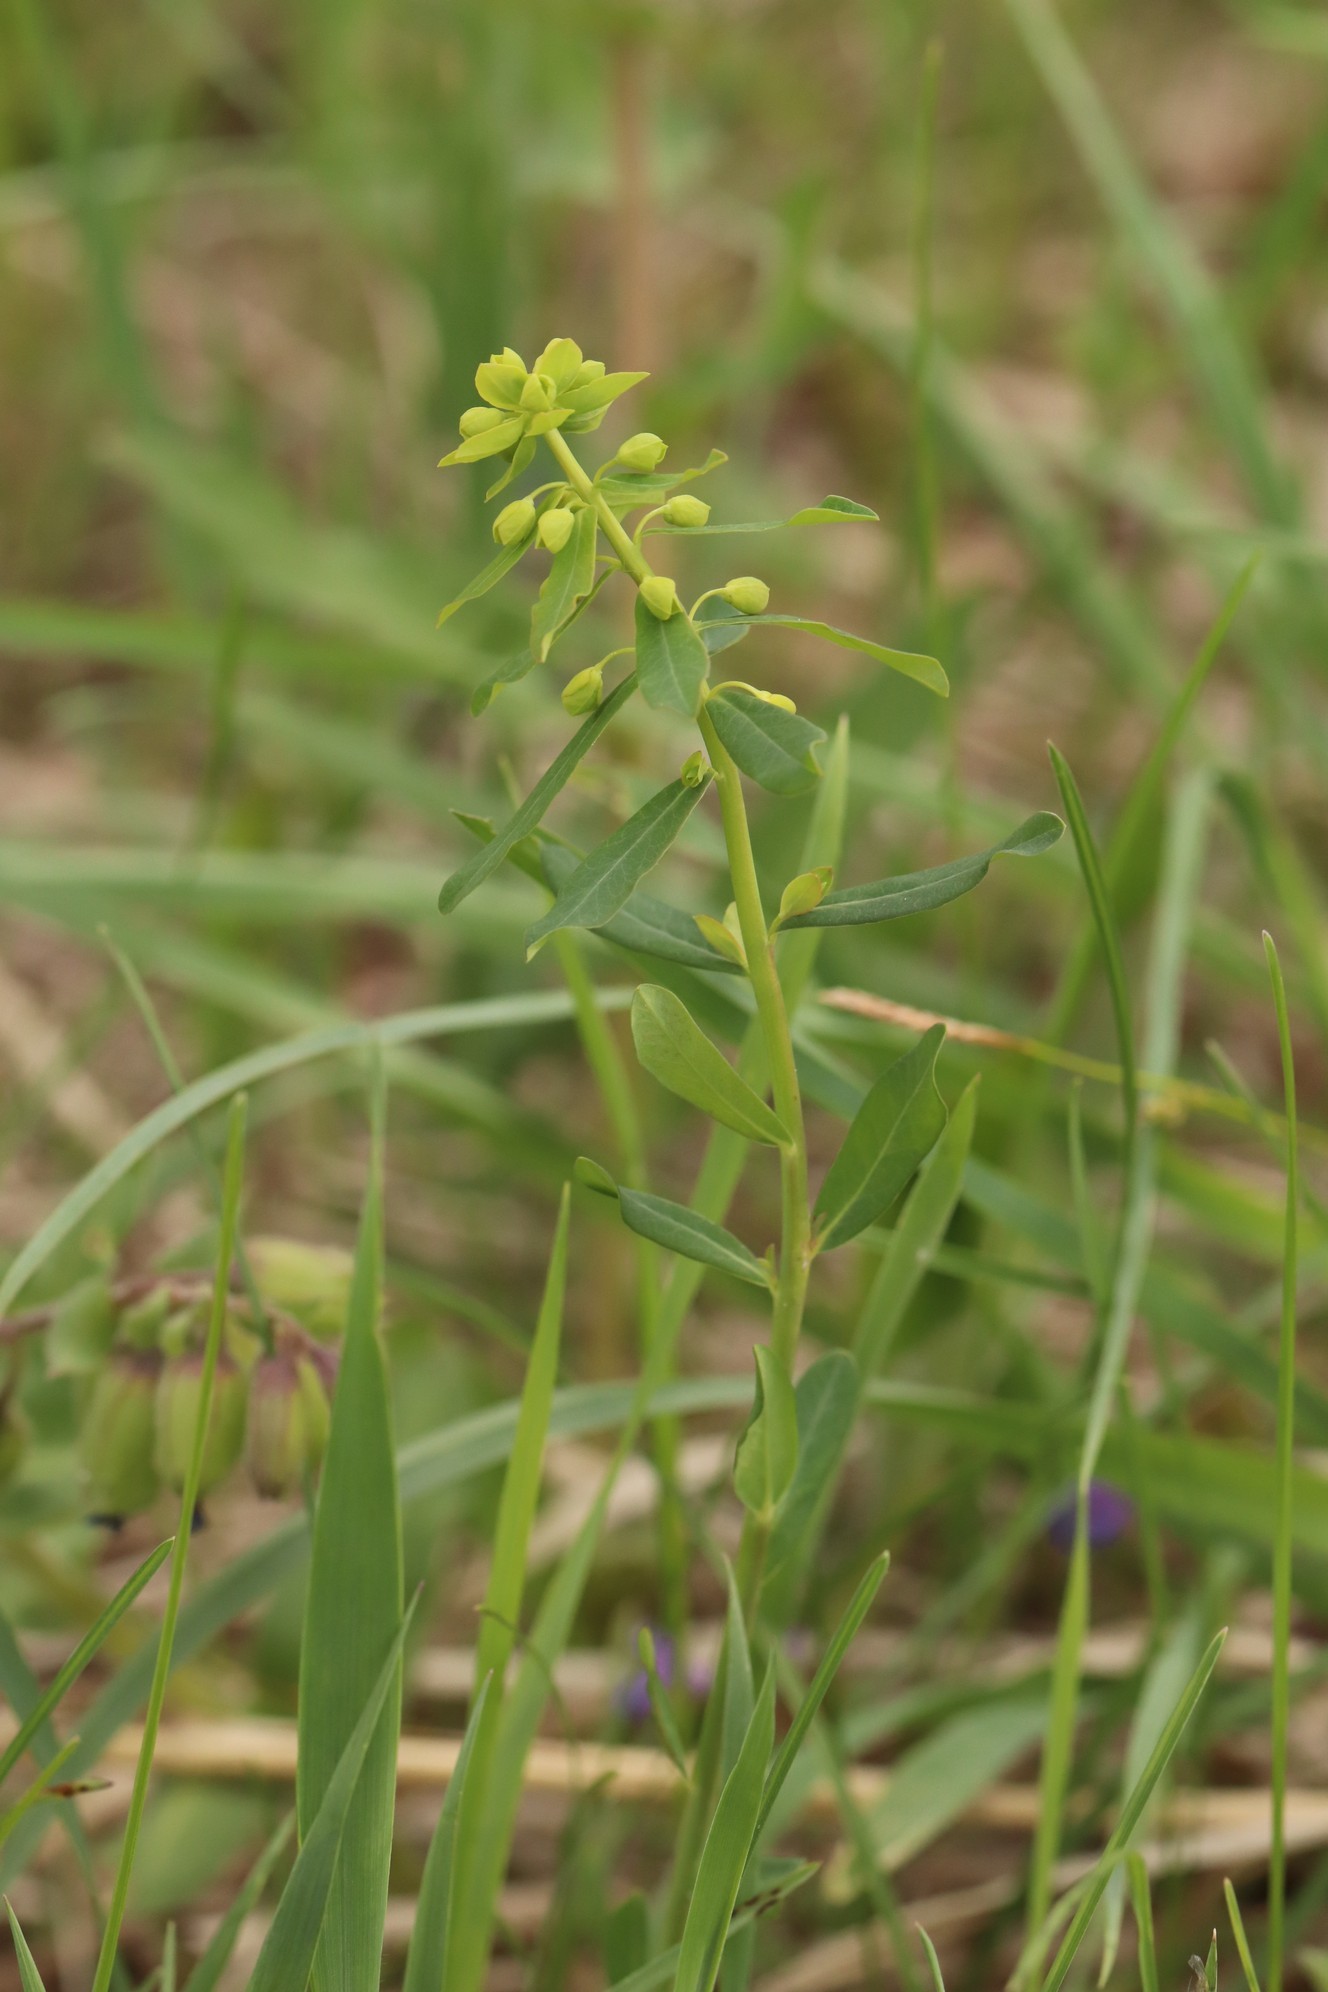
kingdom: Plantae
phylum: Tracheophyta
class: Magnoliopsida
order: Malpighiales
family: Euphorbiaceae
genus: Euphorbia
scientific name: Euphorbia virgata
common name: Leafy spurge
